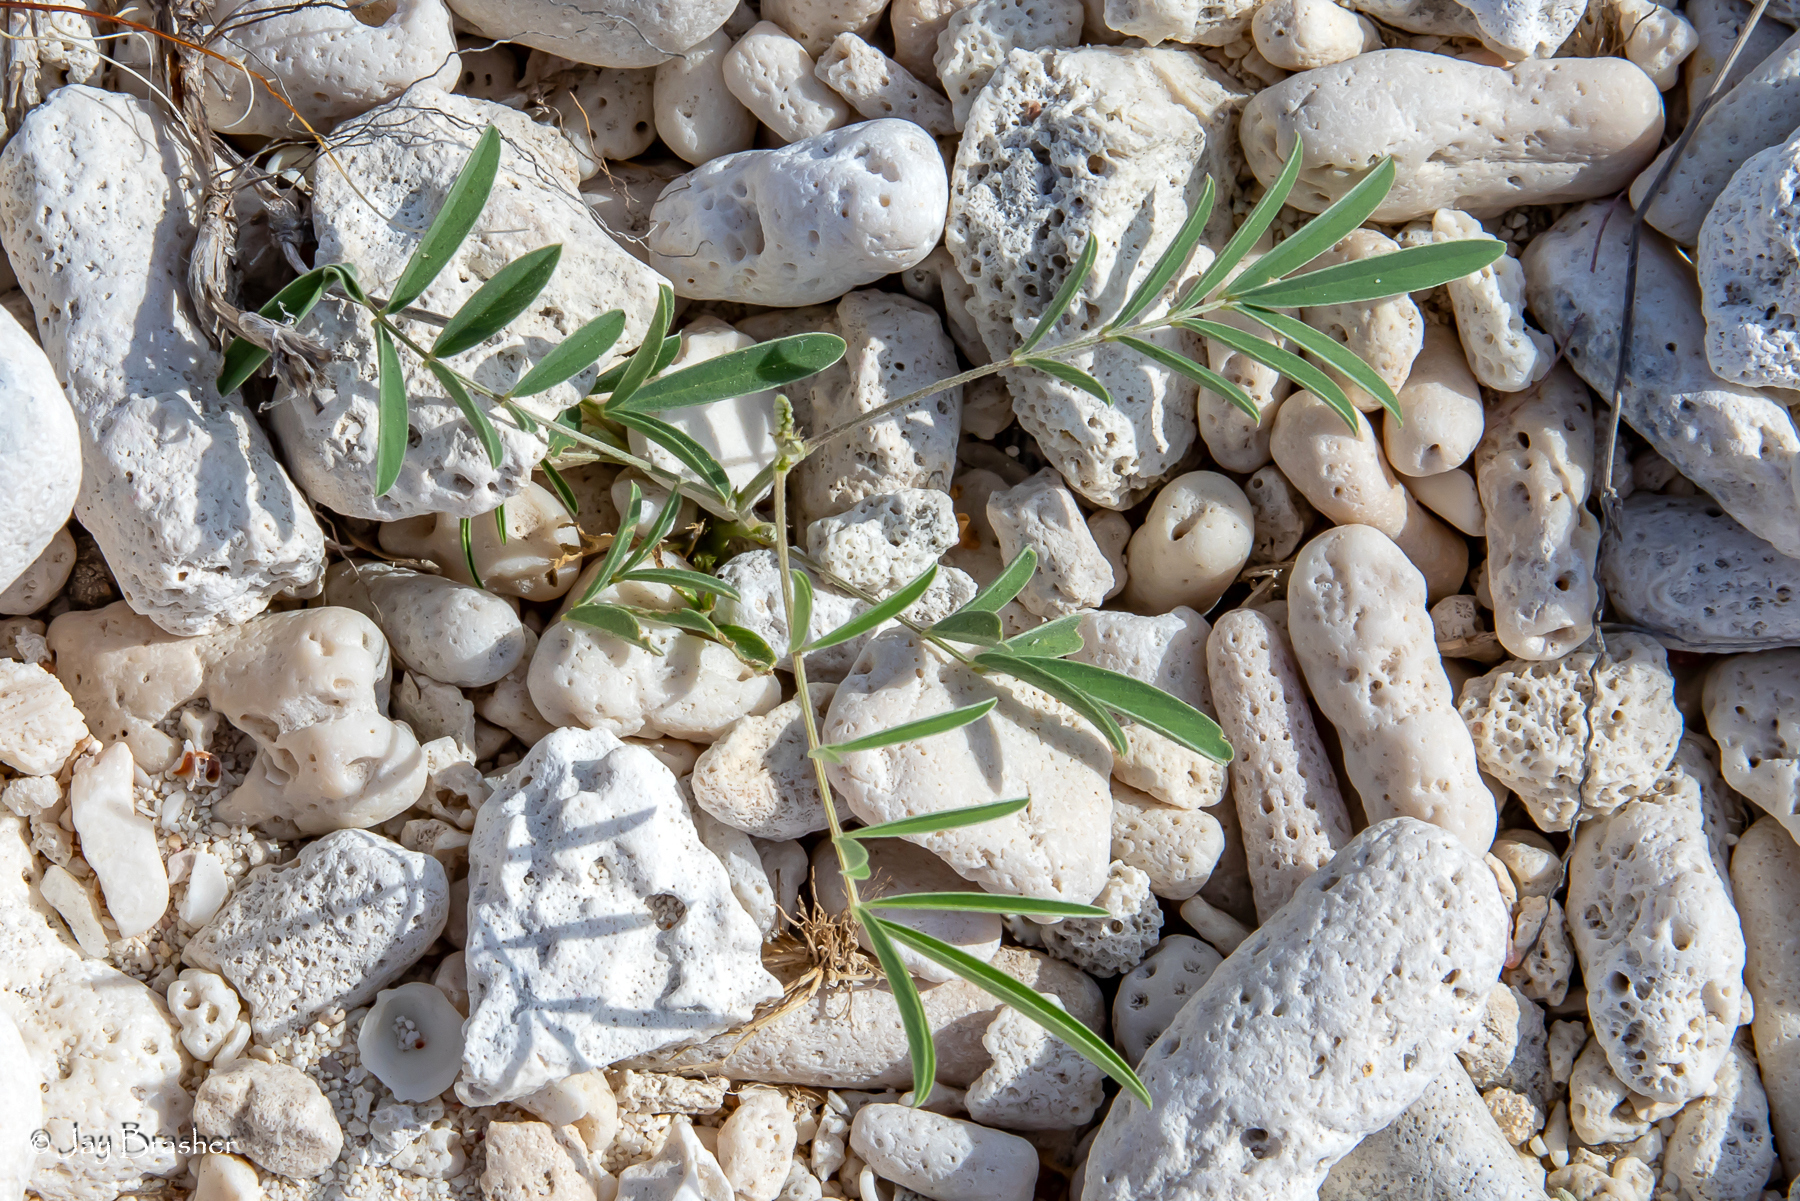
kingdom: Plantae
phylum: Tracheophyta
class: Magnoliopsida
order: Fabales
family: Fabaceae
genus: Tephrosia
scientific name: Tephrosia cinerea
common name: Ashen hoarypea
